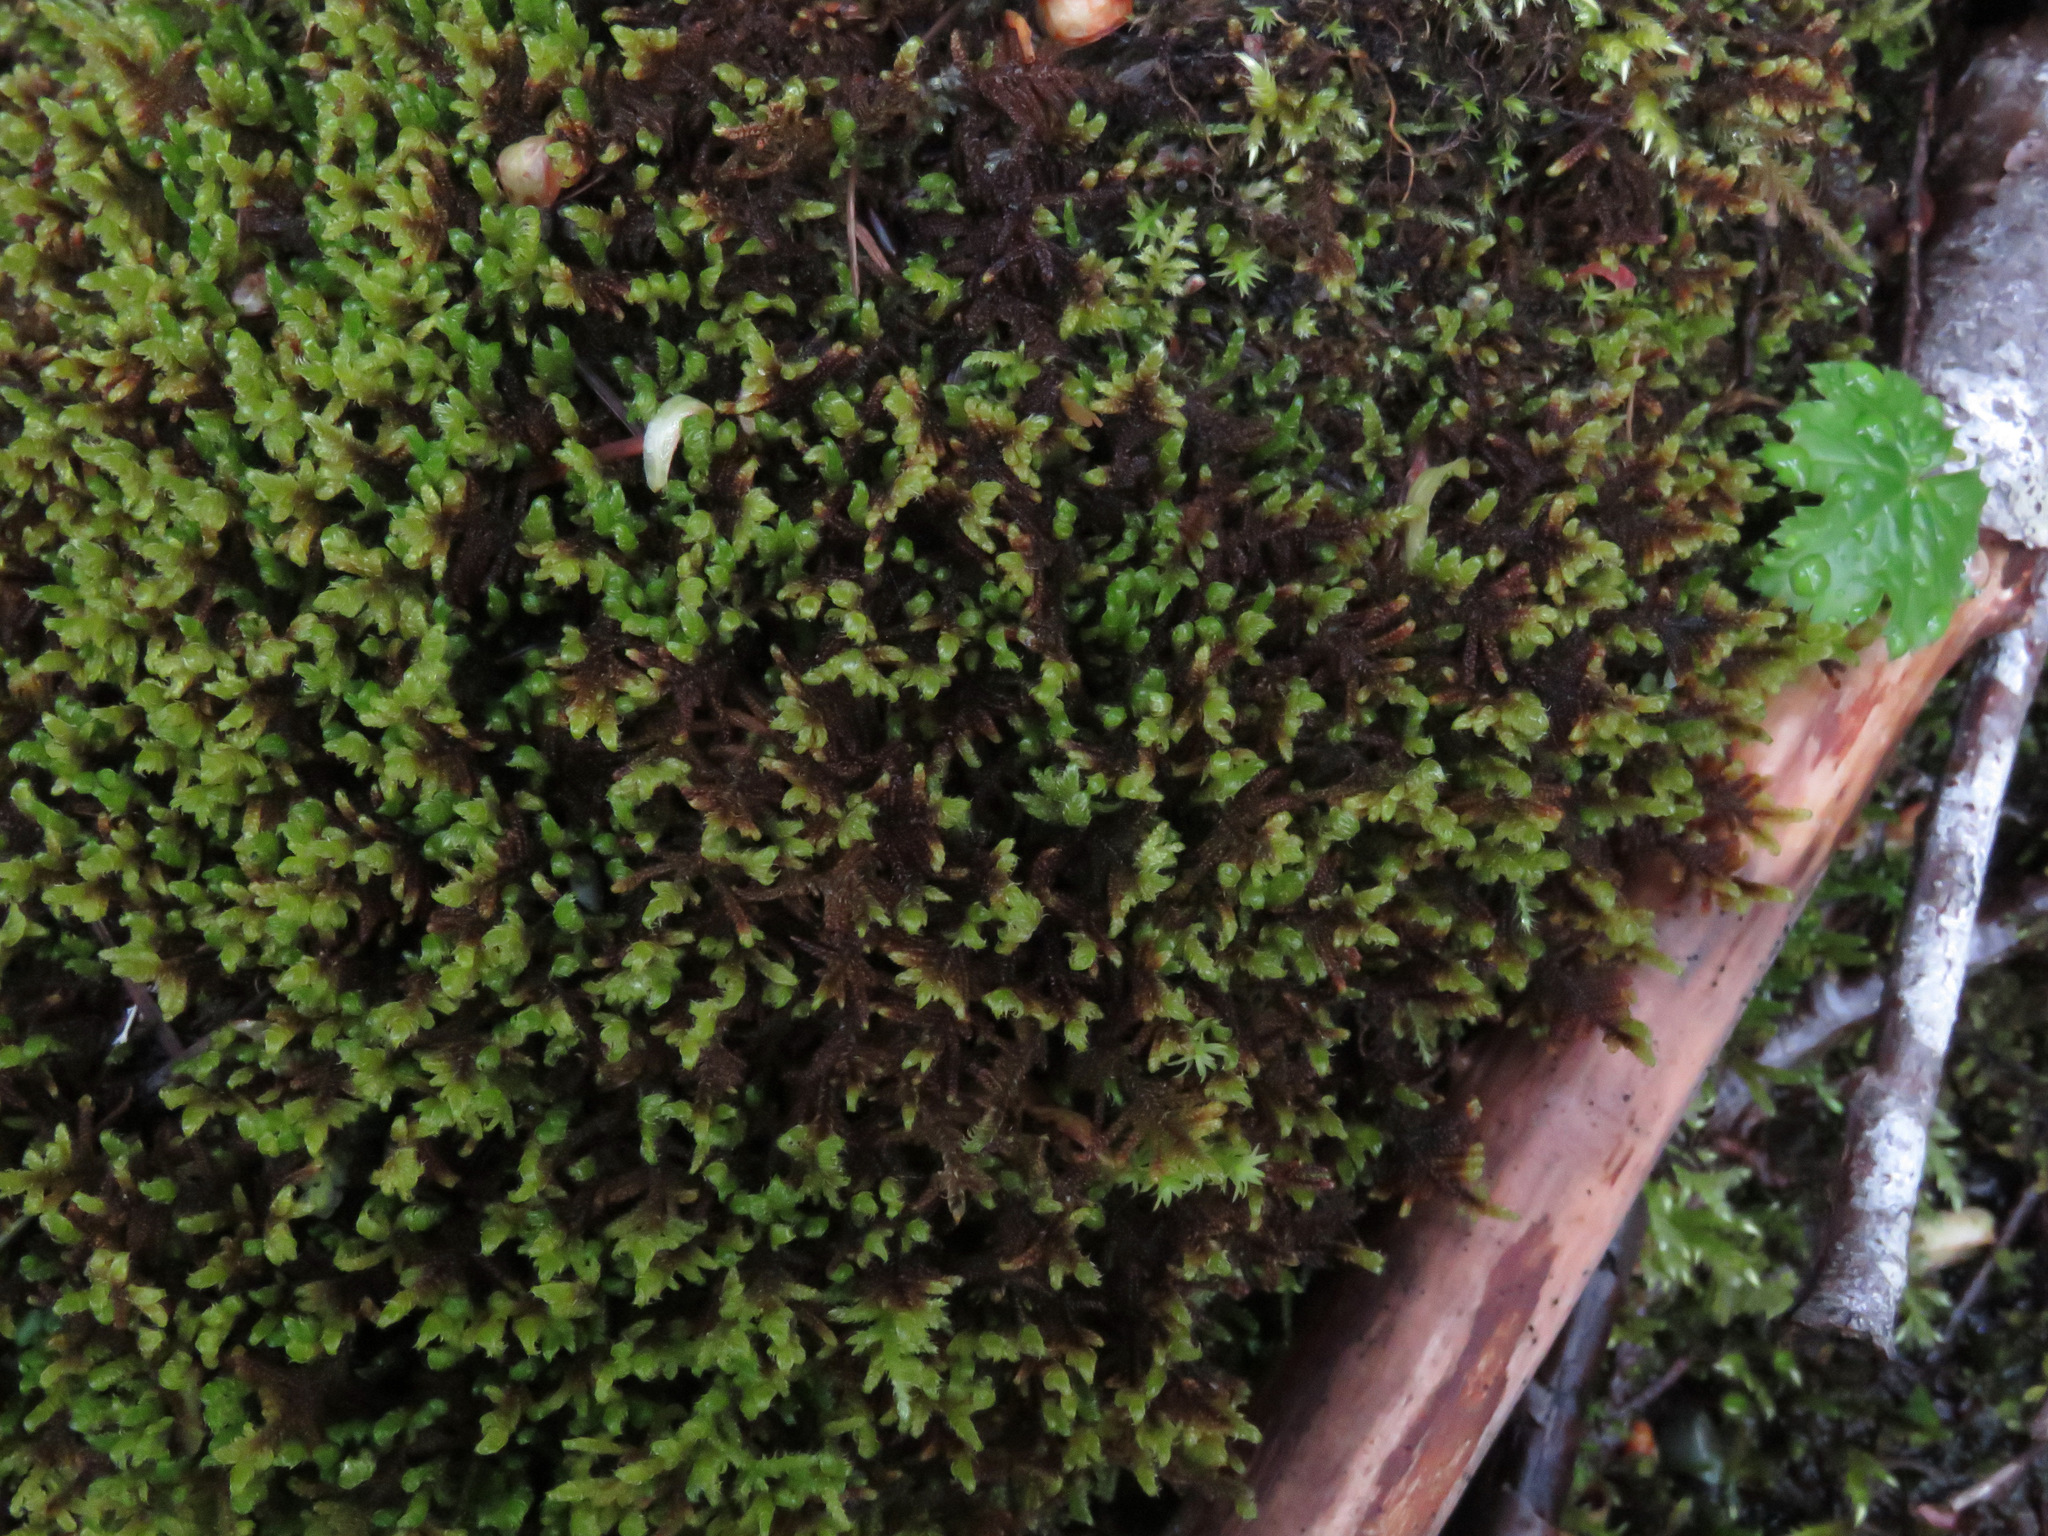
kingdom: Plantae
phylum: Bryophyta
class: Bryopsida
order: Hypnales
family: Pylaisiaceae
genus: Calliergonellopsis
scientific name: Calliergonellopsis dieckii
